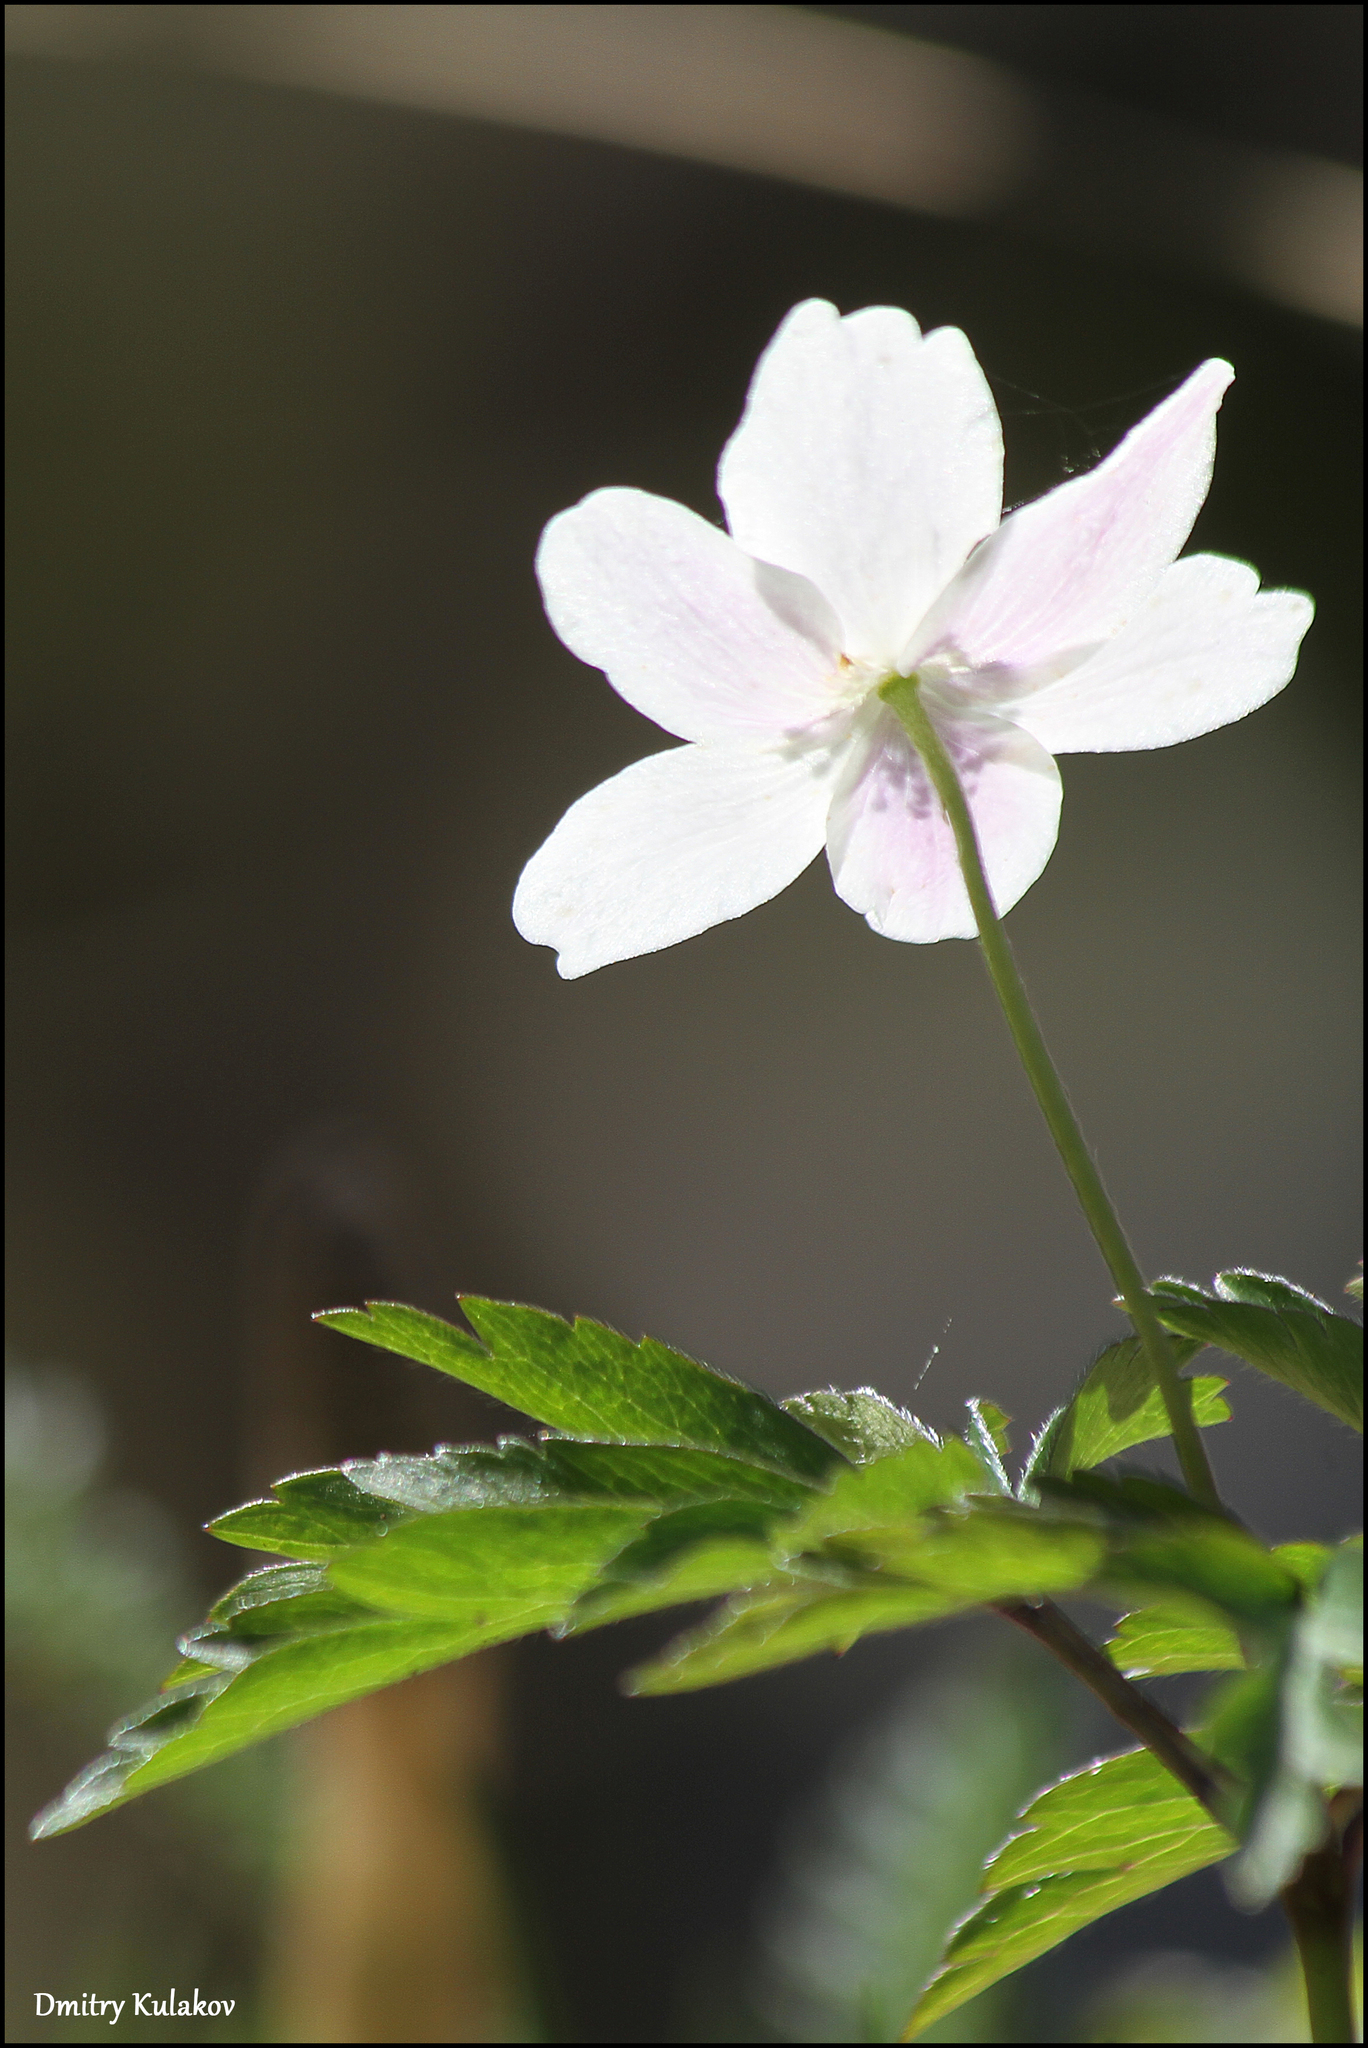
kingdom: Plantae
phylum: Tracheophyta
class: Magnoliopsida
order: Ranunculales
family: Ranunculaceae
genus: Anemone
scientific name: Anemone nemorosa
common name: Wood anemone
